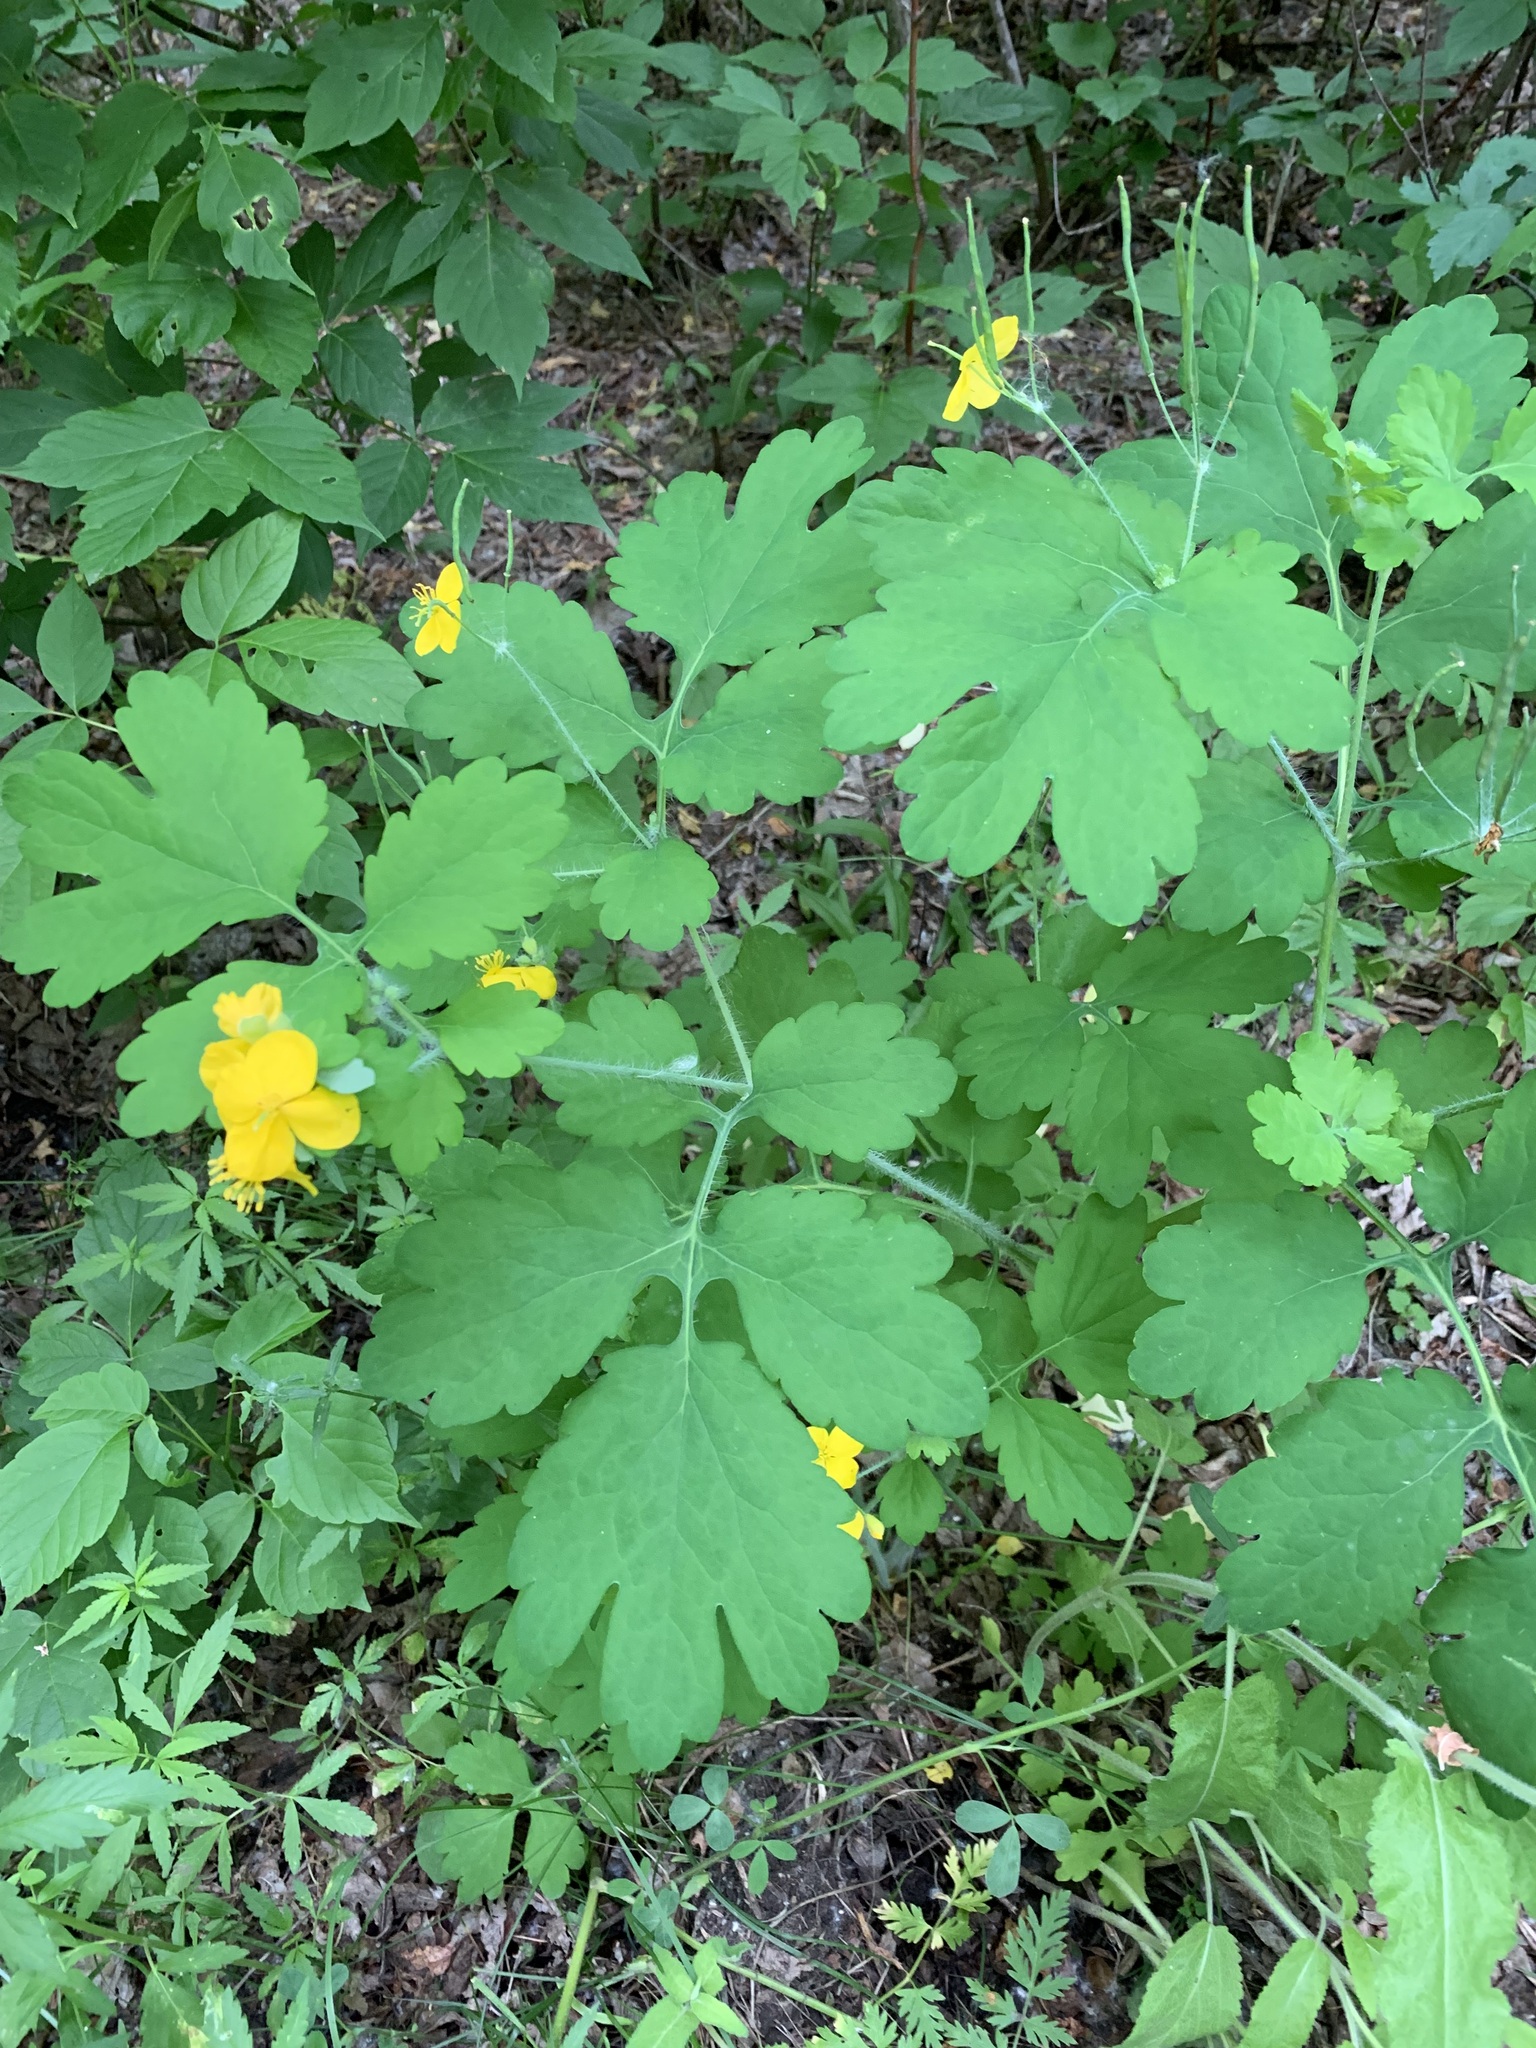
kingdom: Plantae
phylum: Tracheophyta
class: Magnoliopsida
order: Ranunculales
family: Papaveraceae
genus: Chelidonium
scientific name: Chelidonium majus
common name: Greater celandine
